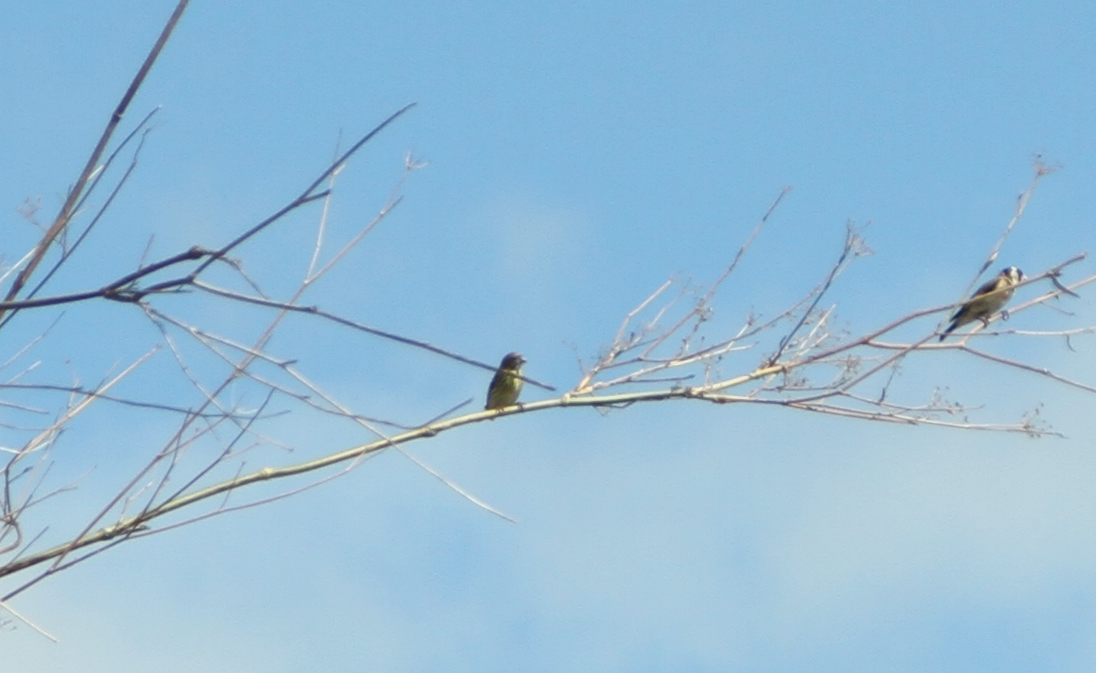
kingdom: Animalia
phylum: Chordata
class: Aves
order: Passeriformes
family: Fringillidae
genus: Serinus
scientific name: Serinus serinus
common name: European serin
